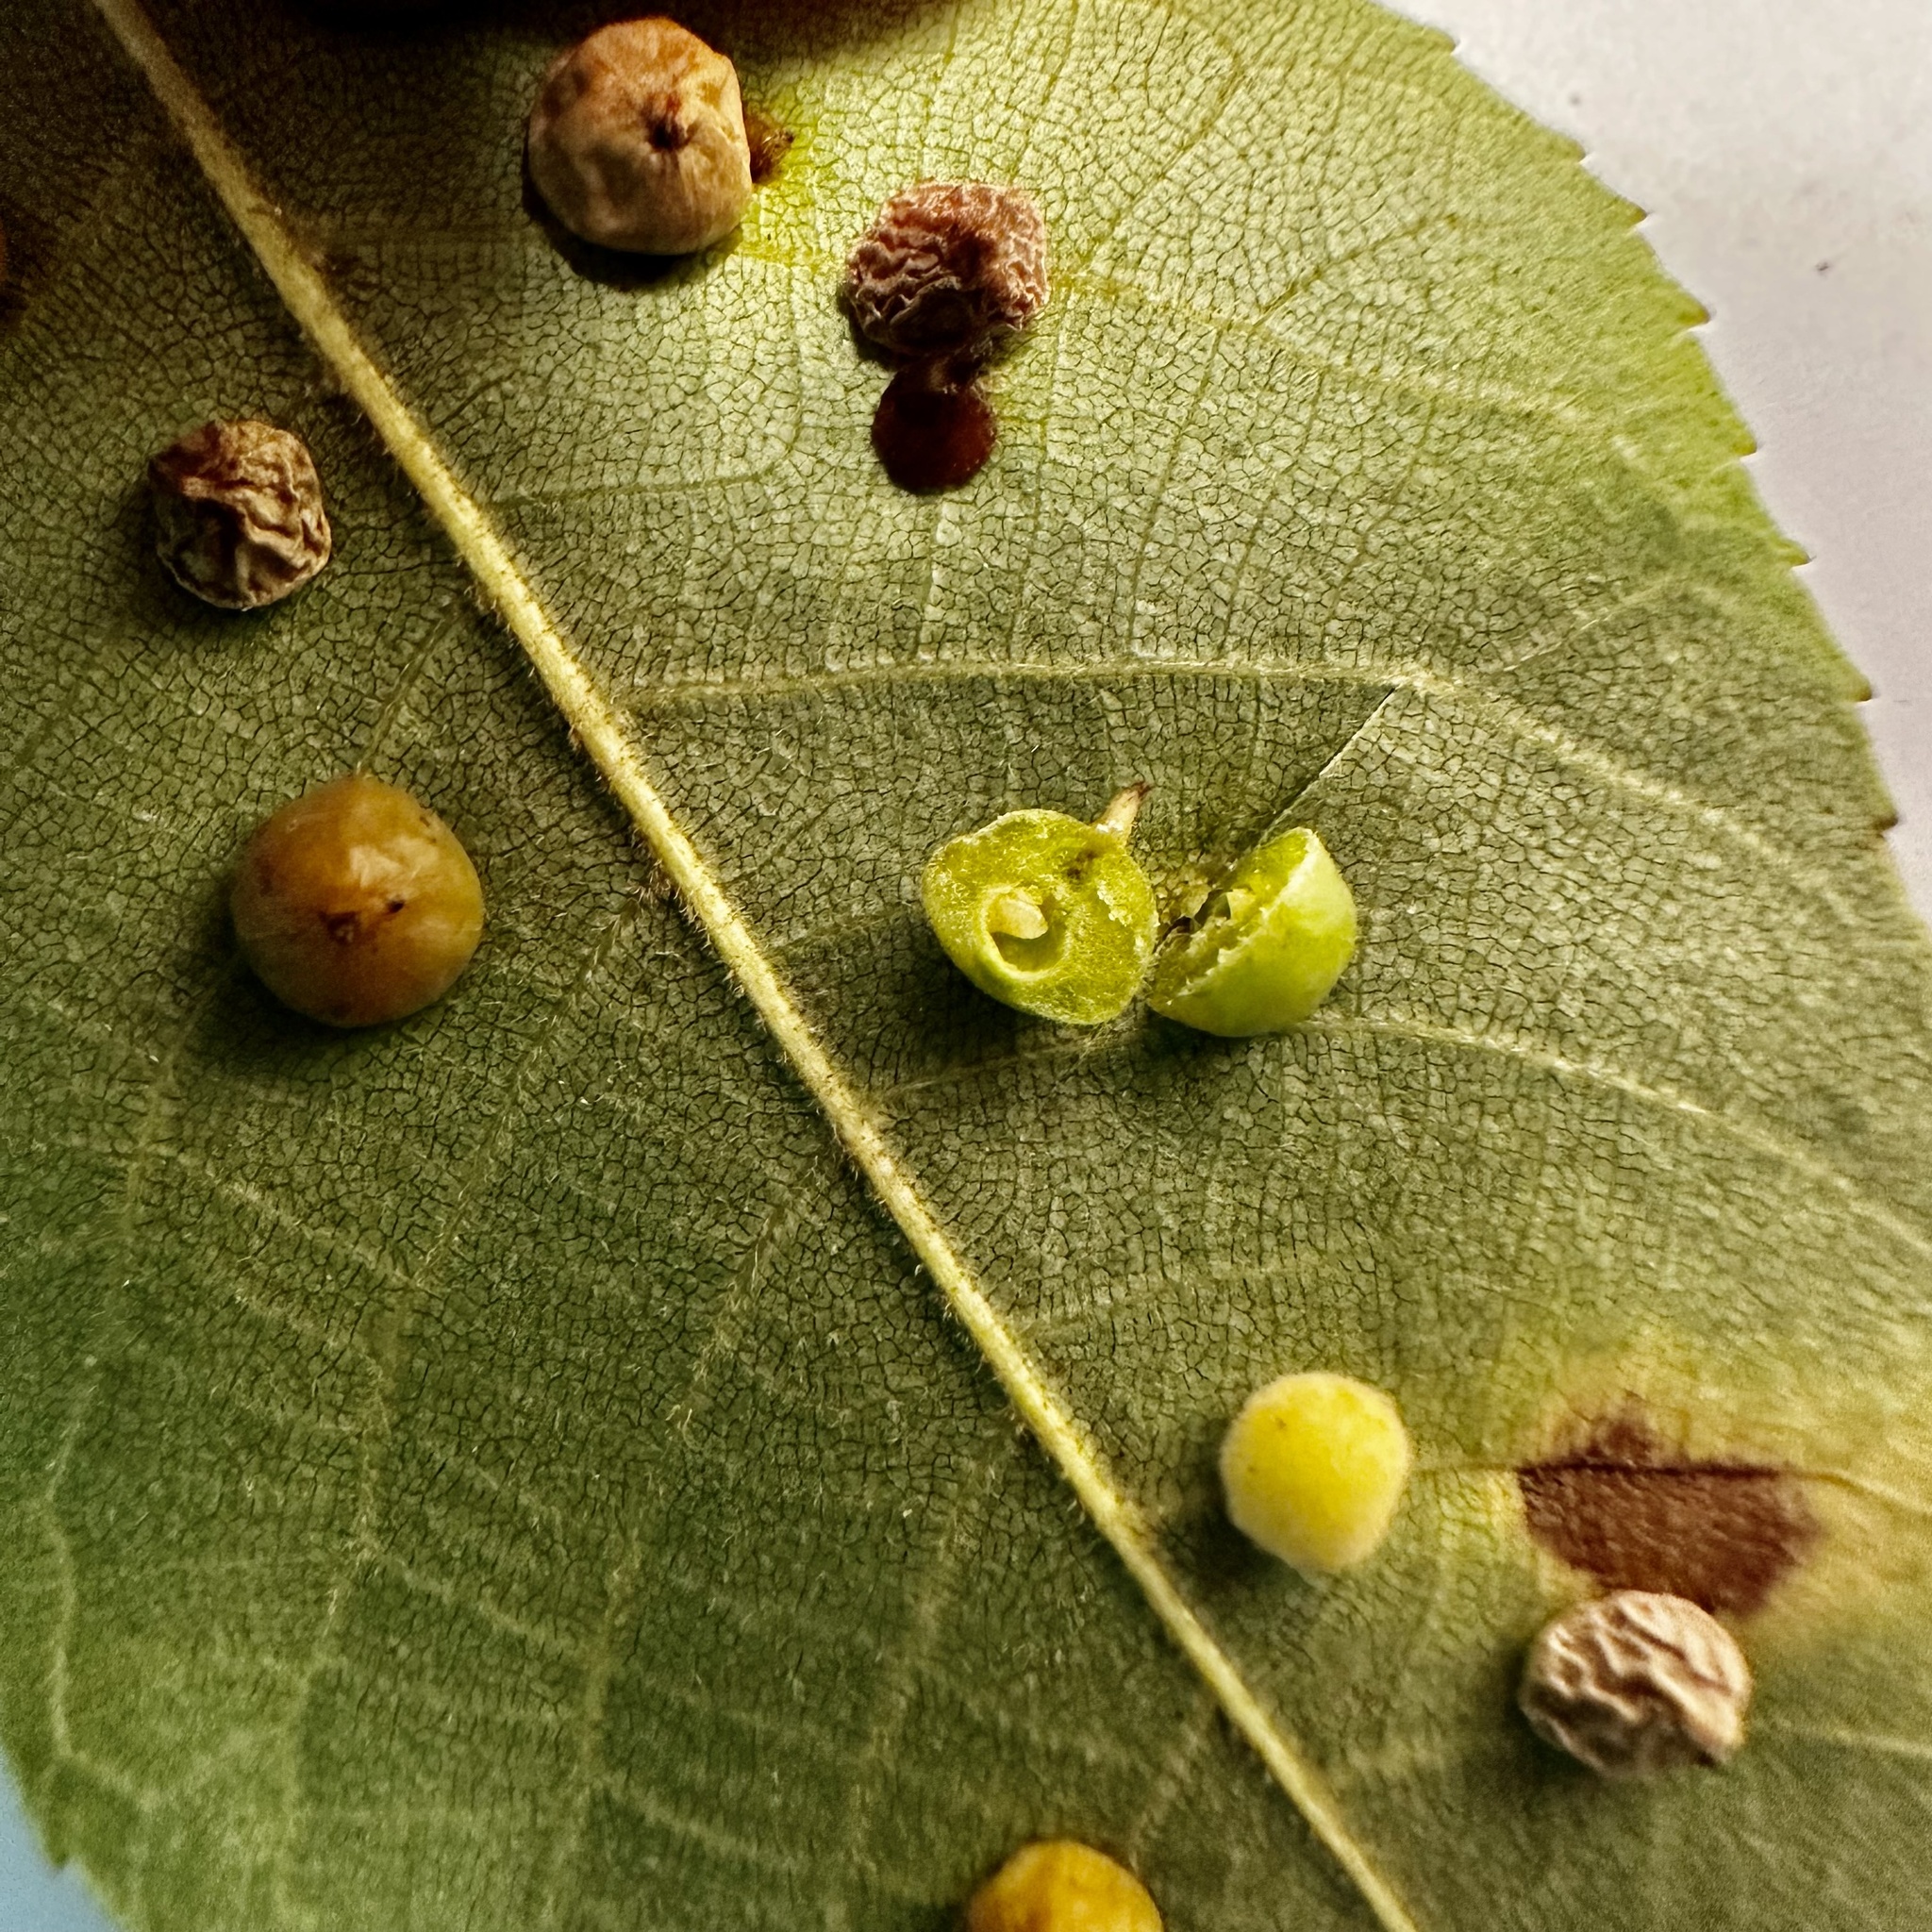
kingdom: Animalia
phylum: Arthropoda
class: Insecta
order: Diptera
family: Cecidomyiidae
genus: Caryomyia
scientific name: Caryomyia conoidea
